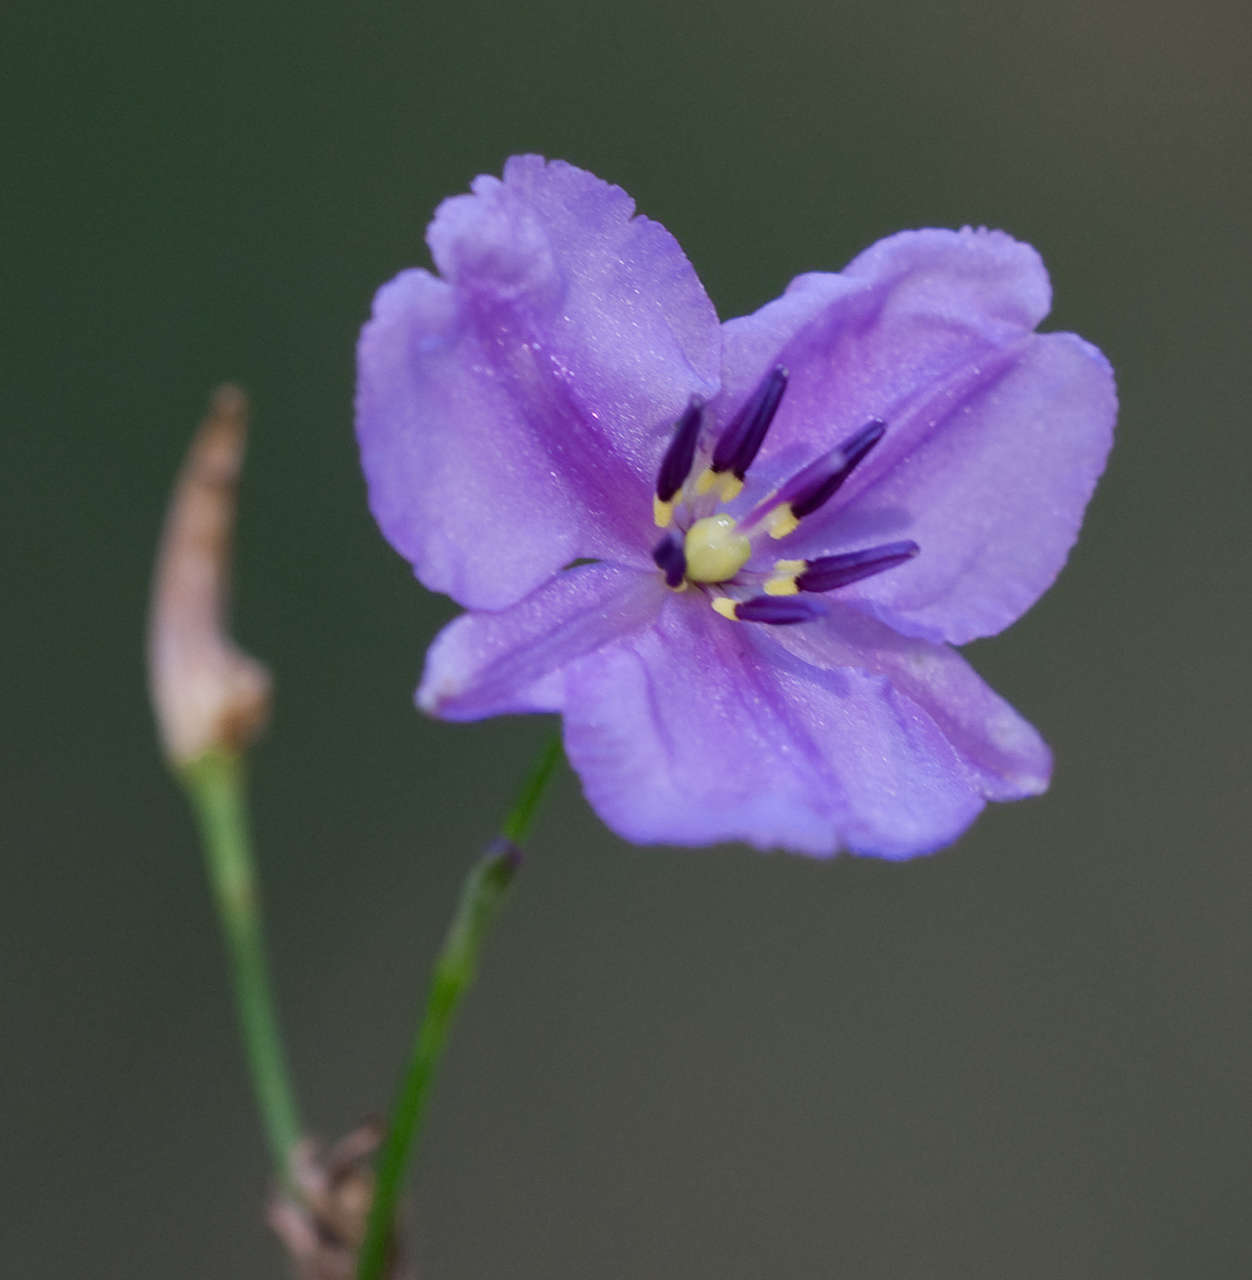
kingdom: Plantae
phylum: Tracheophyta
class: Liliopsida
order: Asparagales
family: Asparagaceae
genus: Arthropodium
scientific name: Arthropodium strictum
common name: Chocolate-lily
